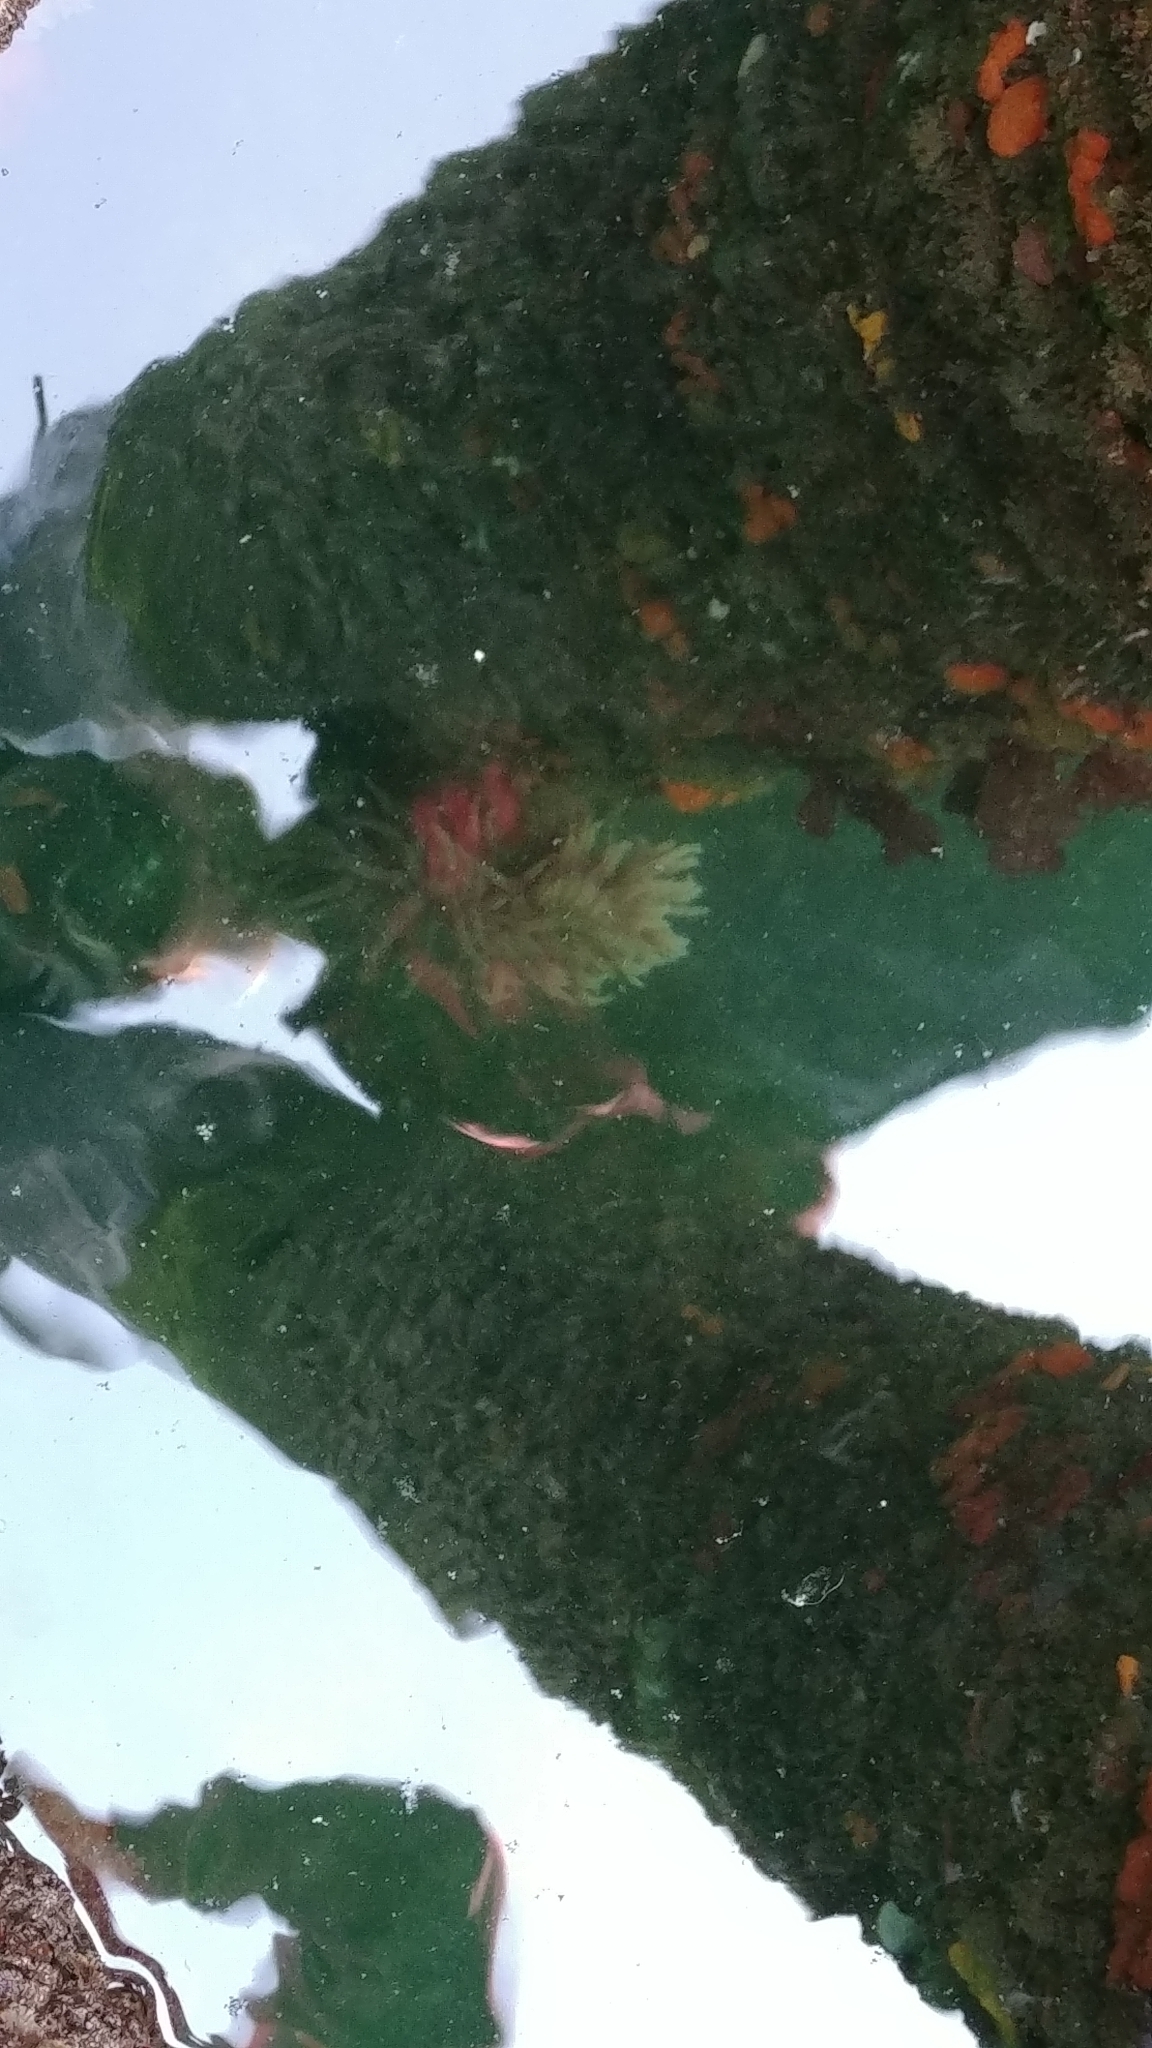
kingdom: Animalia
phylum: Cnidaria
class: Anthozoa
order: Actiniaria
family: Actiniidae
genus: Urticina
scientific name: Urticina grebelnyi
